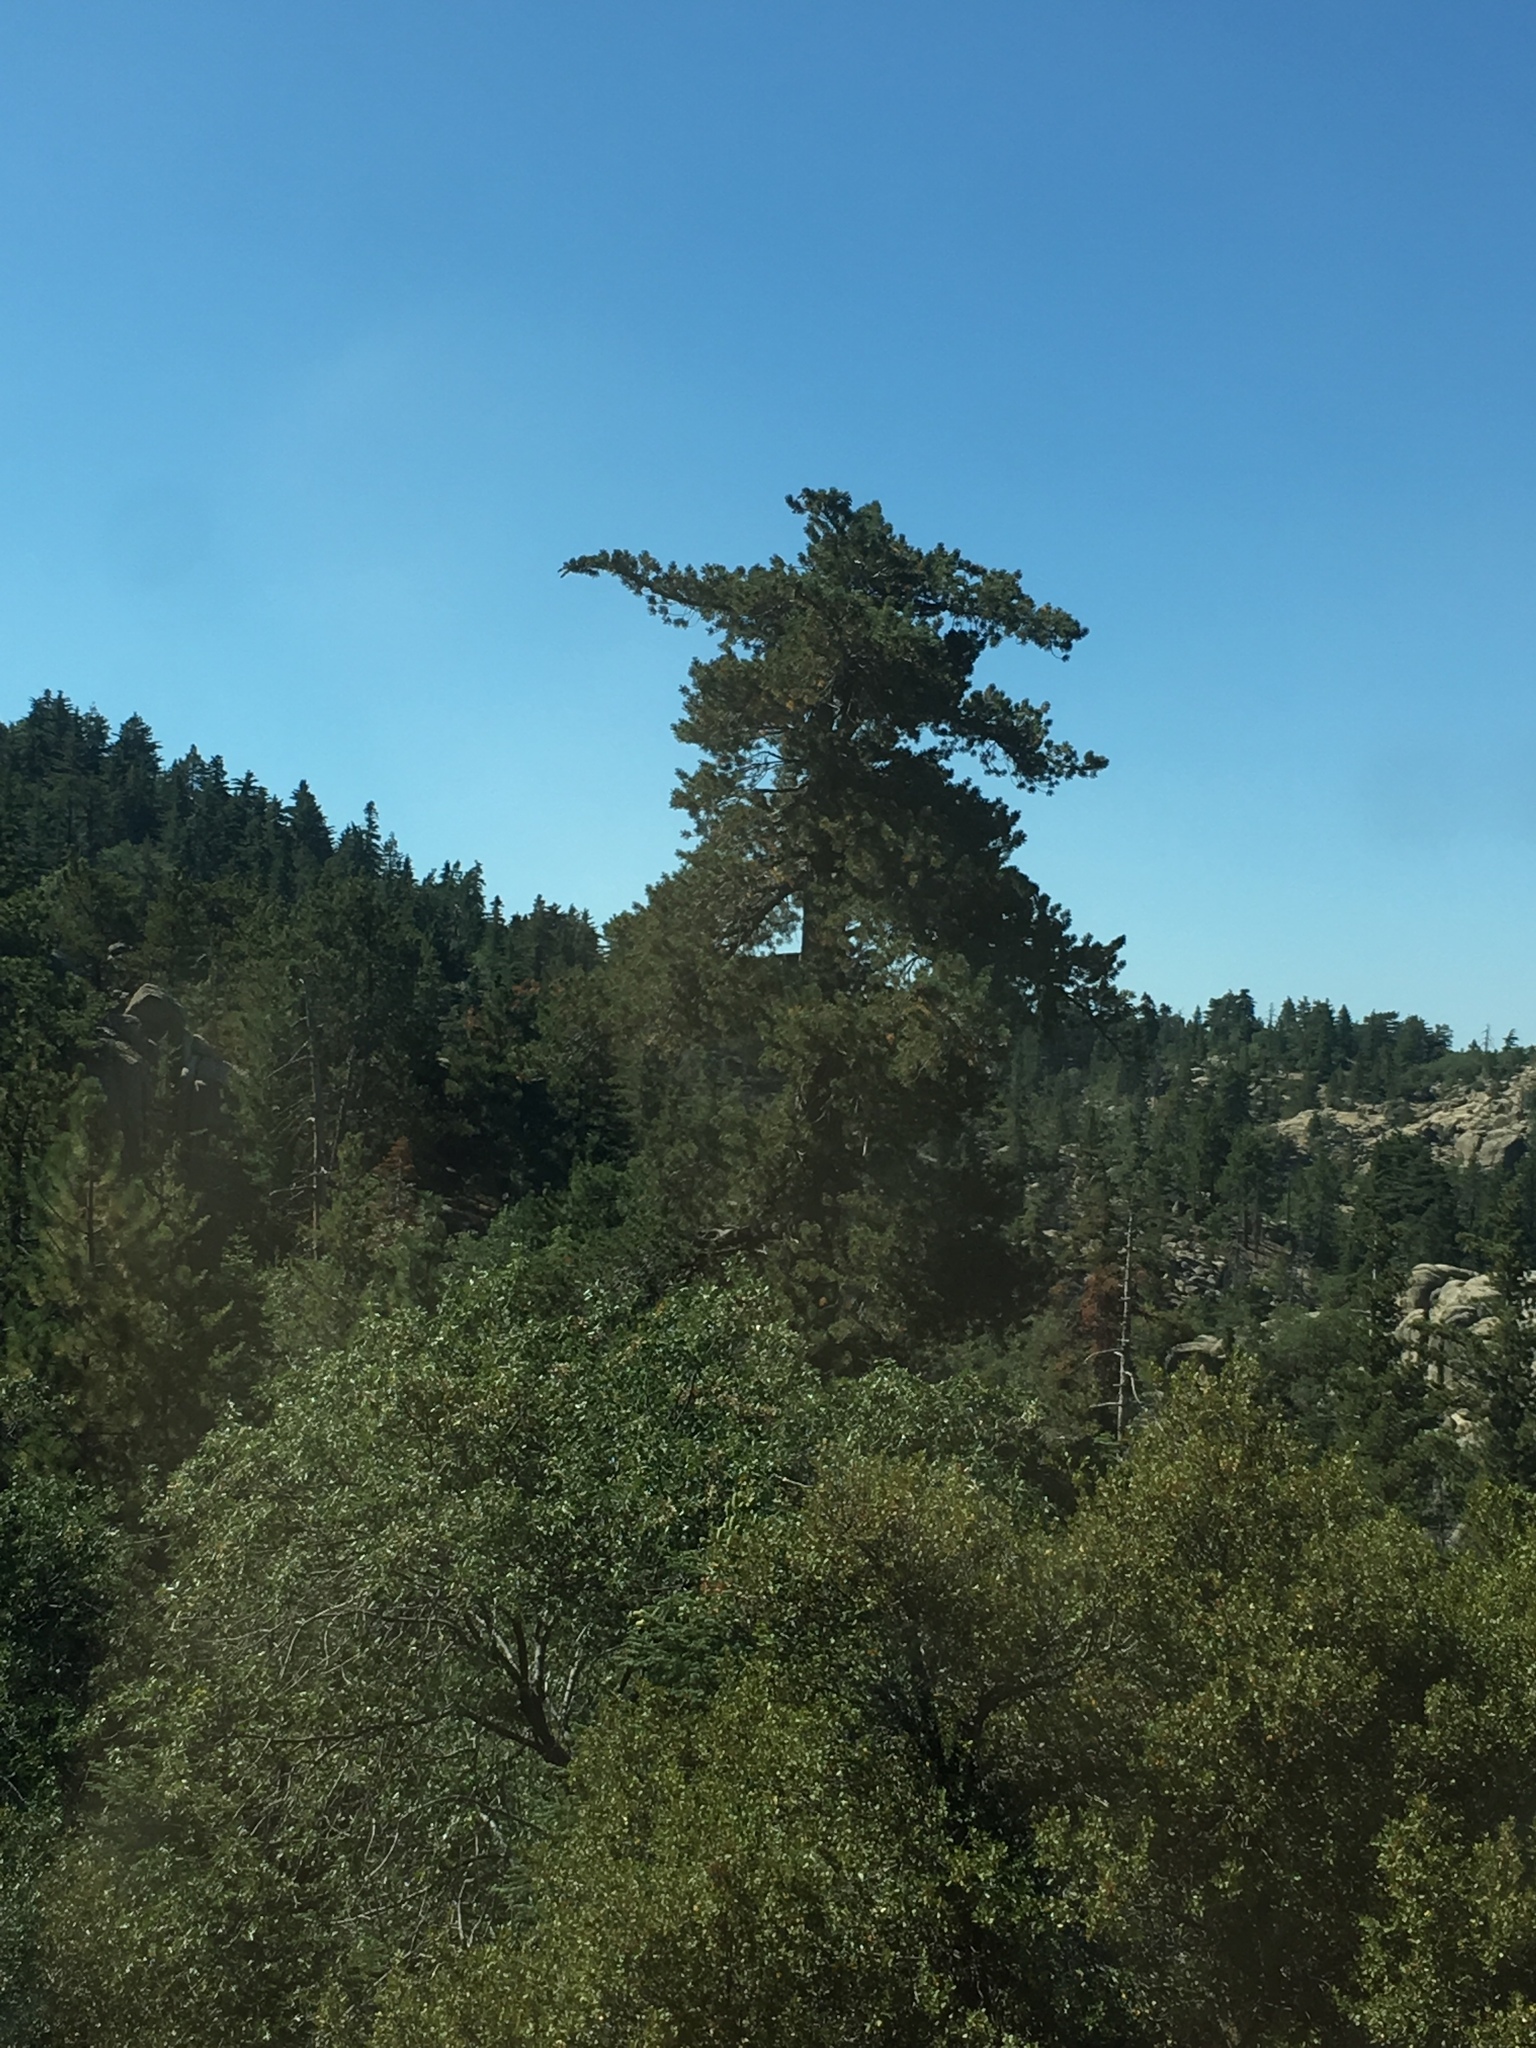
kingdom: Plantae
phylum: Tracheophyta
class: Pinopsida
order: Pinales
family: Pinaceae
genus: Pinus
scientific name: Pinus lambertiana
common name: Sugar pine
